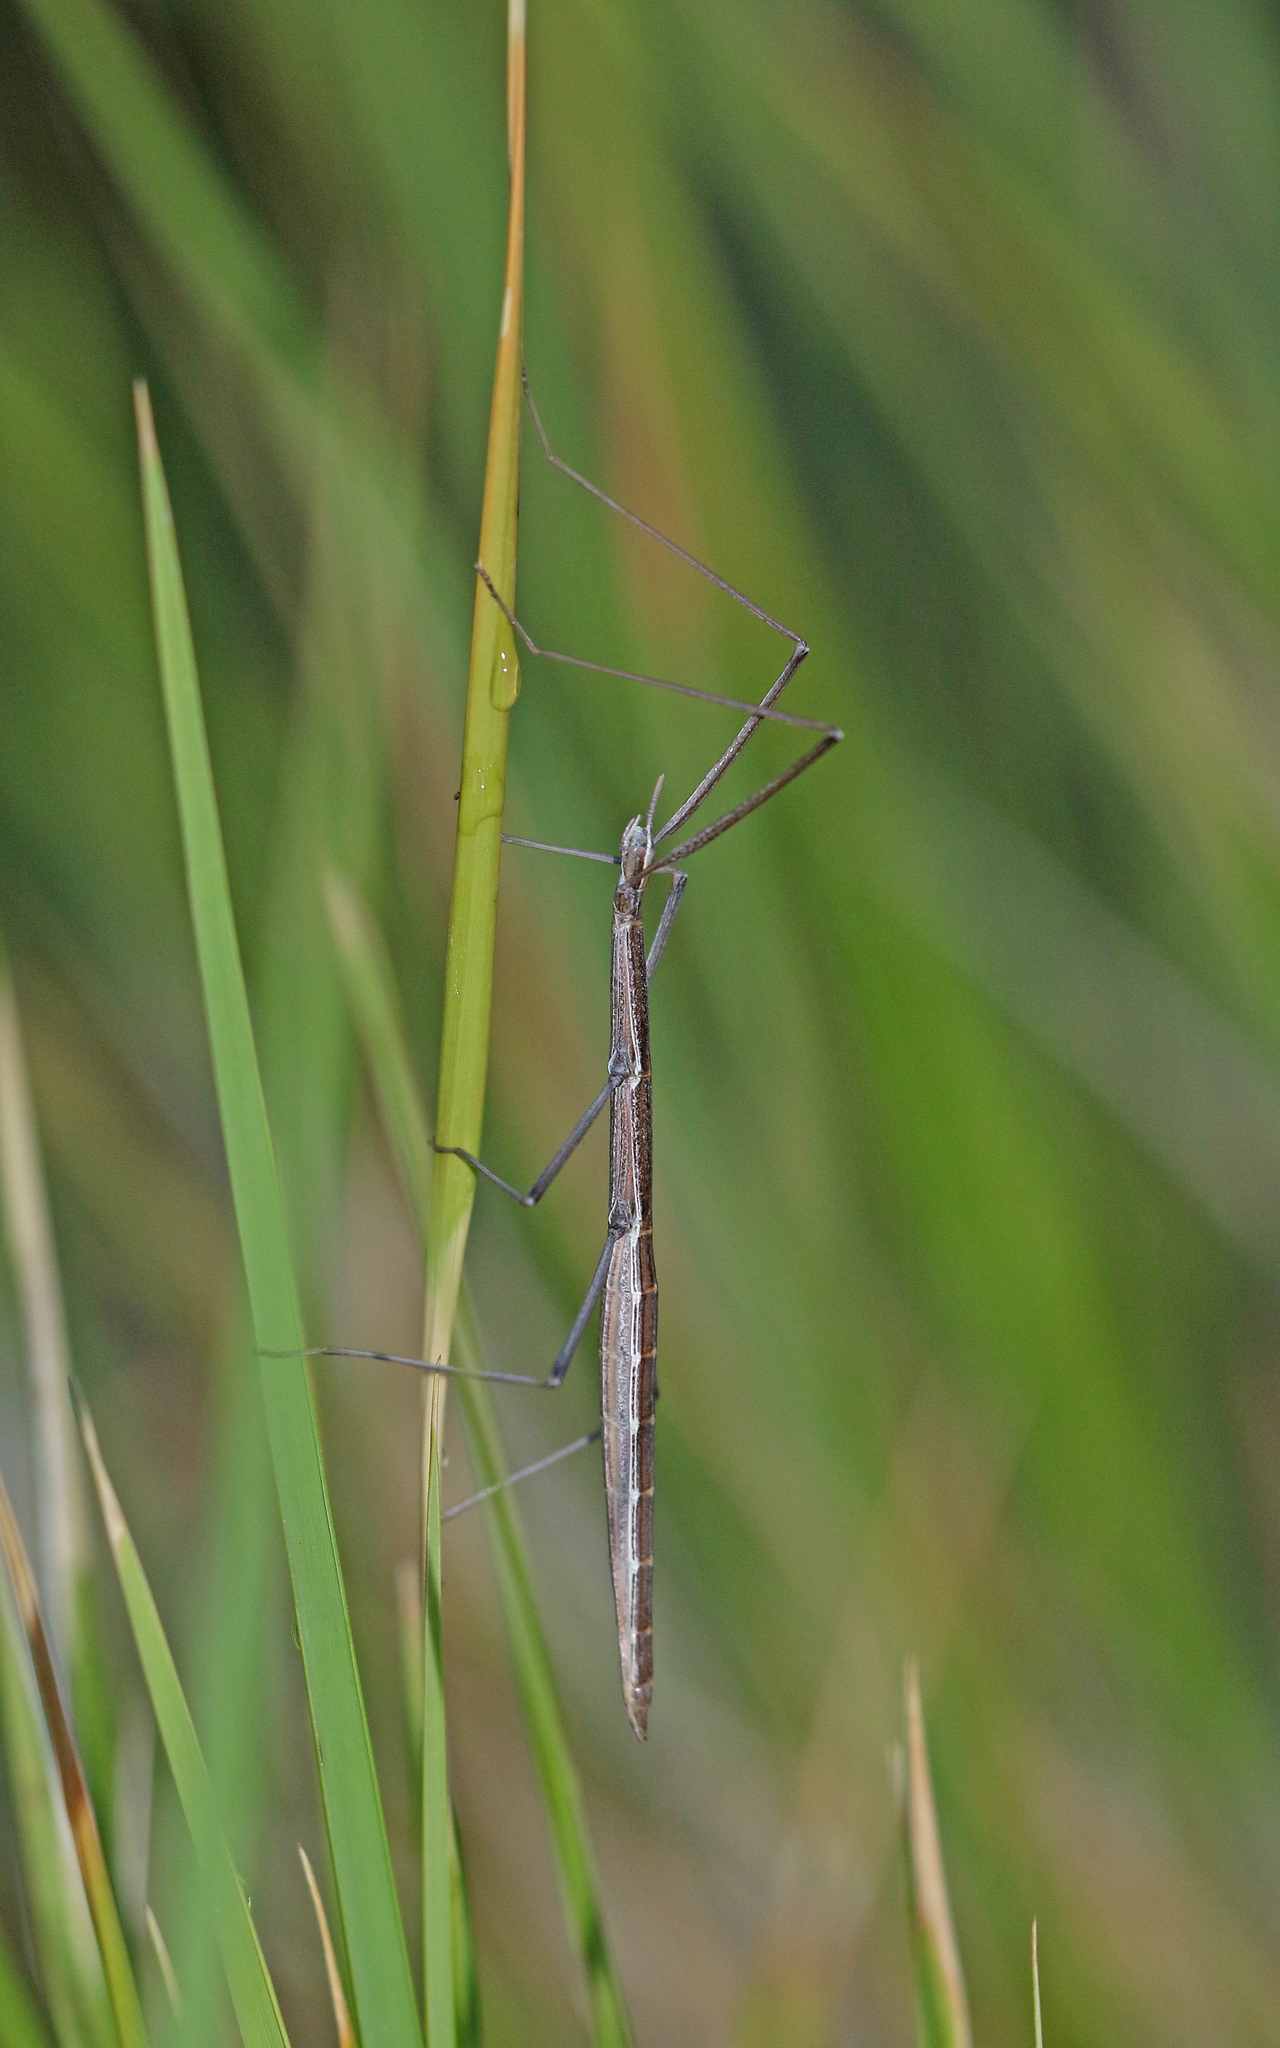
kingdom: Animalia
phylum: Arthropoda
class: Insecta
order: Phasmida
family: Bacillidae
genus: Pijnackeria
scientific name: Pijnackeria masettii
